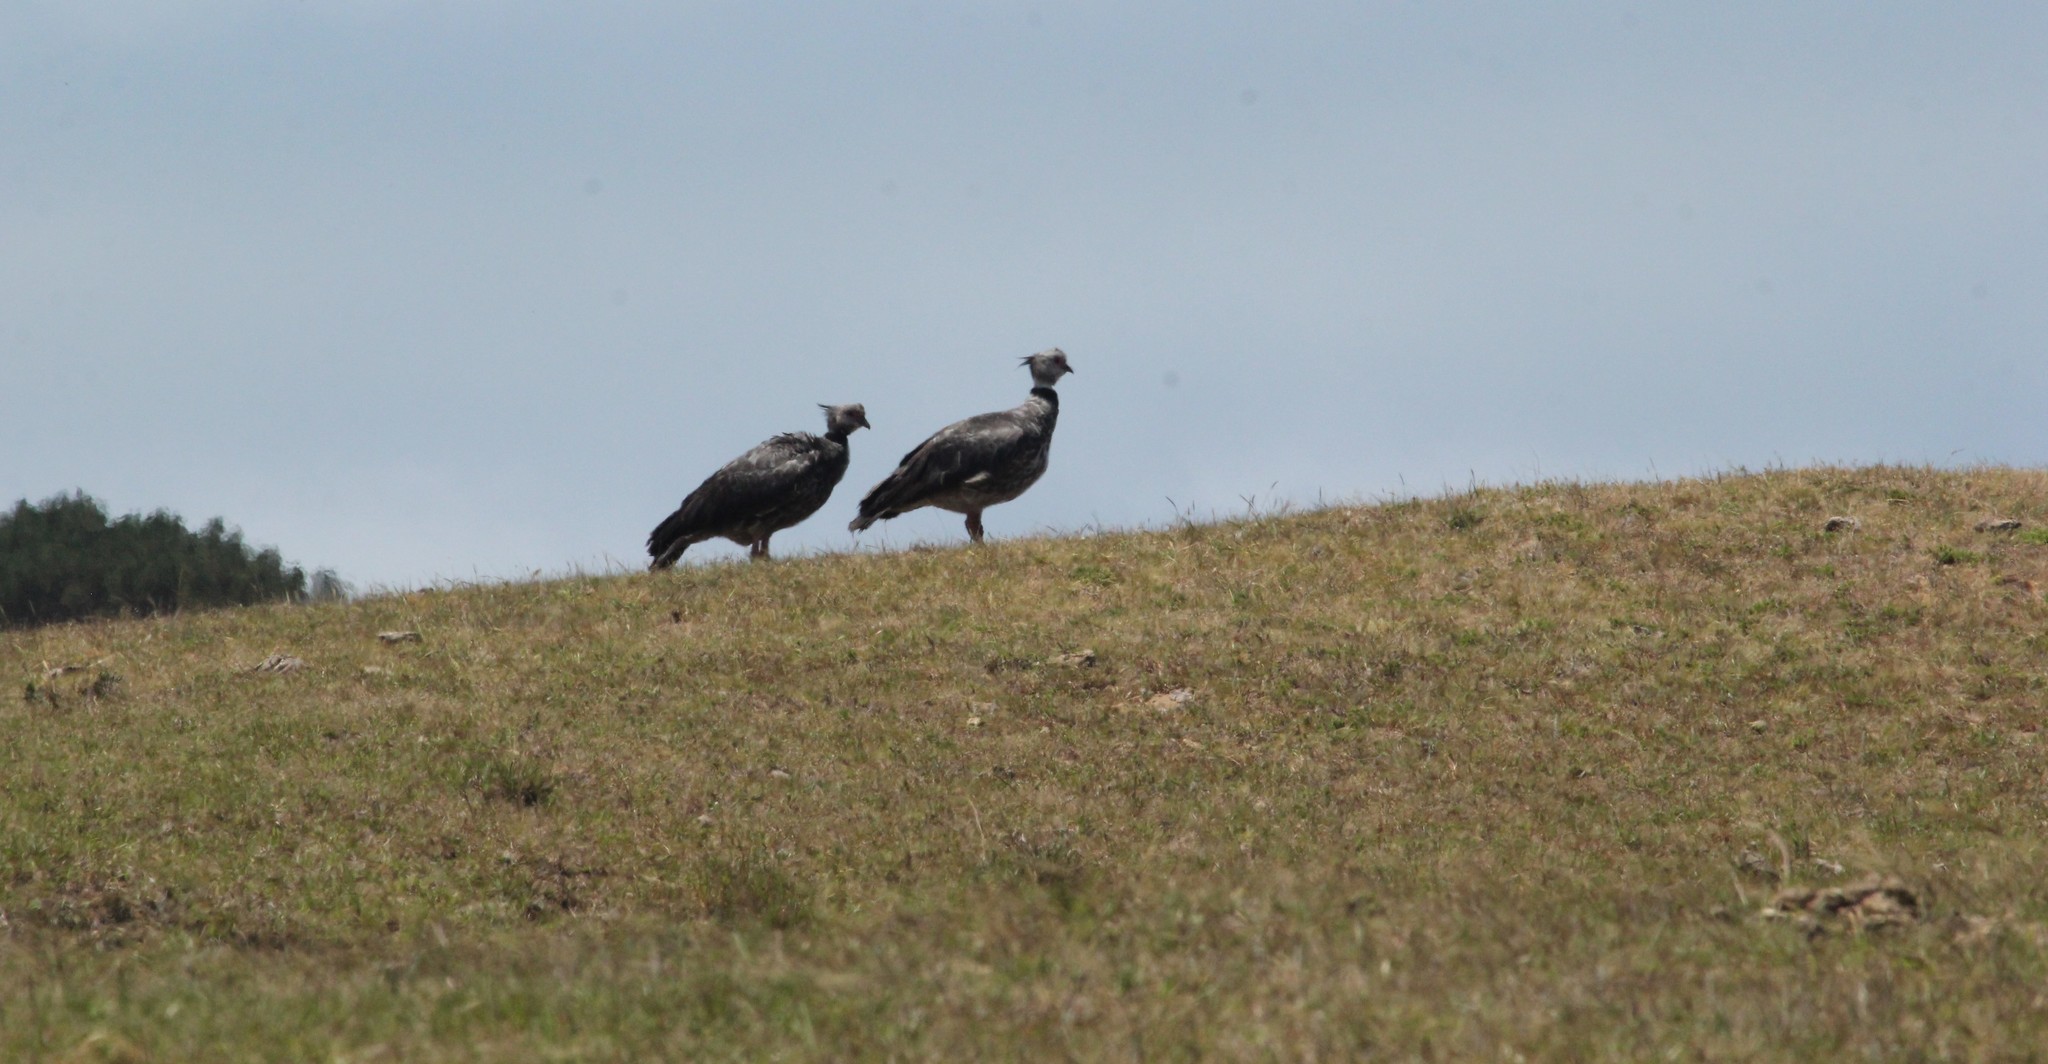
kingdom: Animalia
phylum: Chordata
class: Aves
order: Anseriformes
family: Anhimidae
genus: Chauna
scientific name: Chauna torquata
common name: Southern screamer
